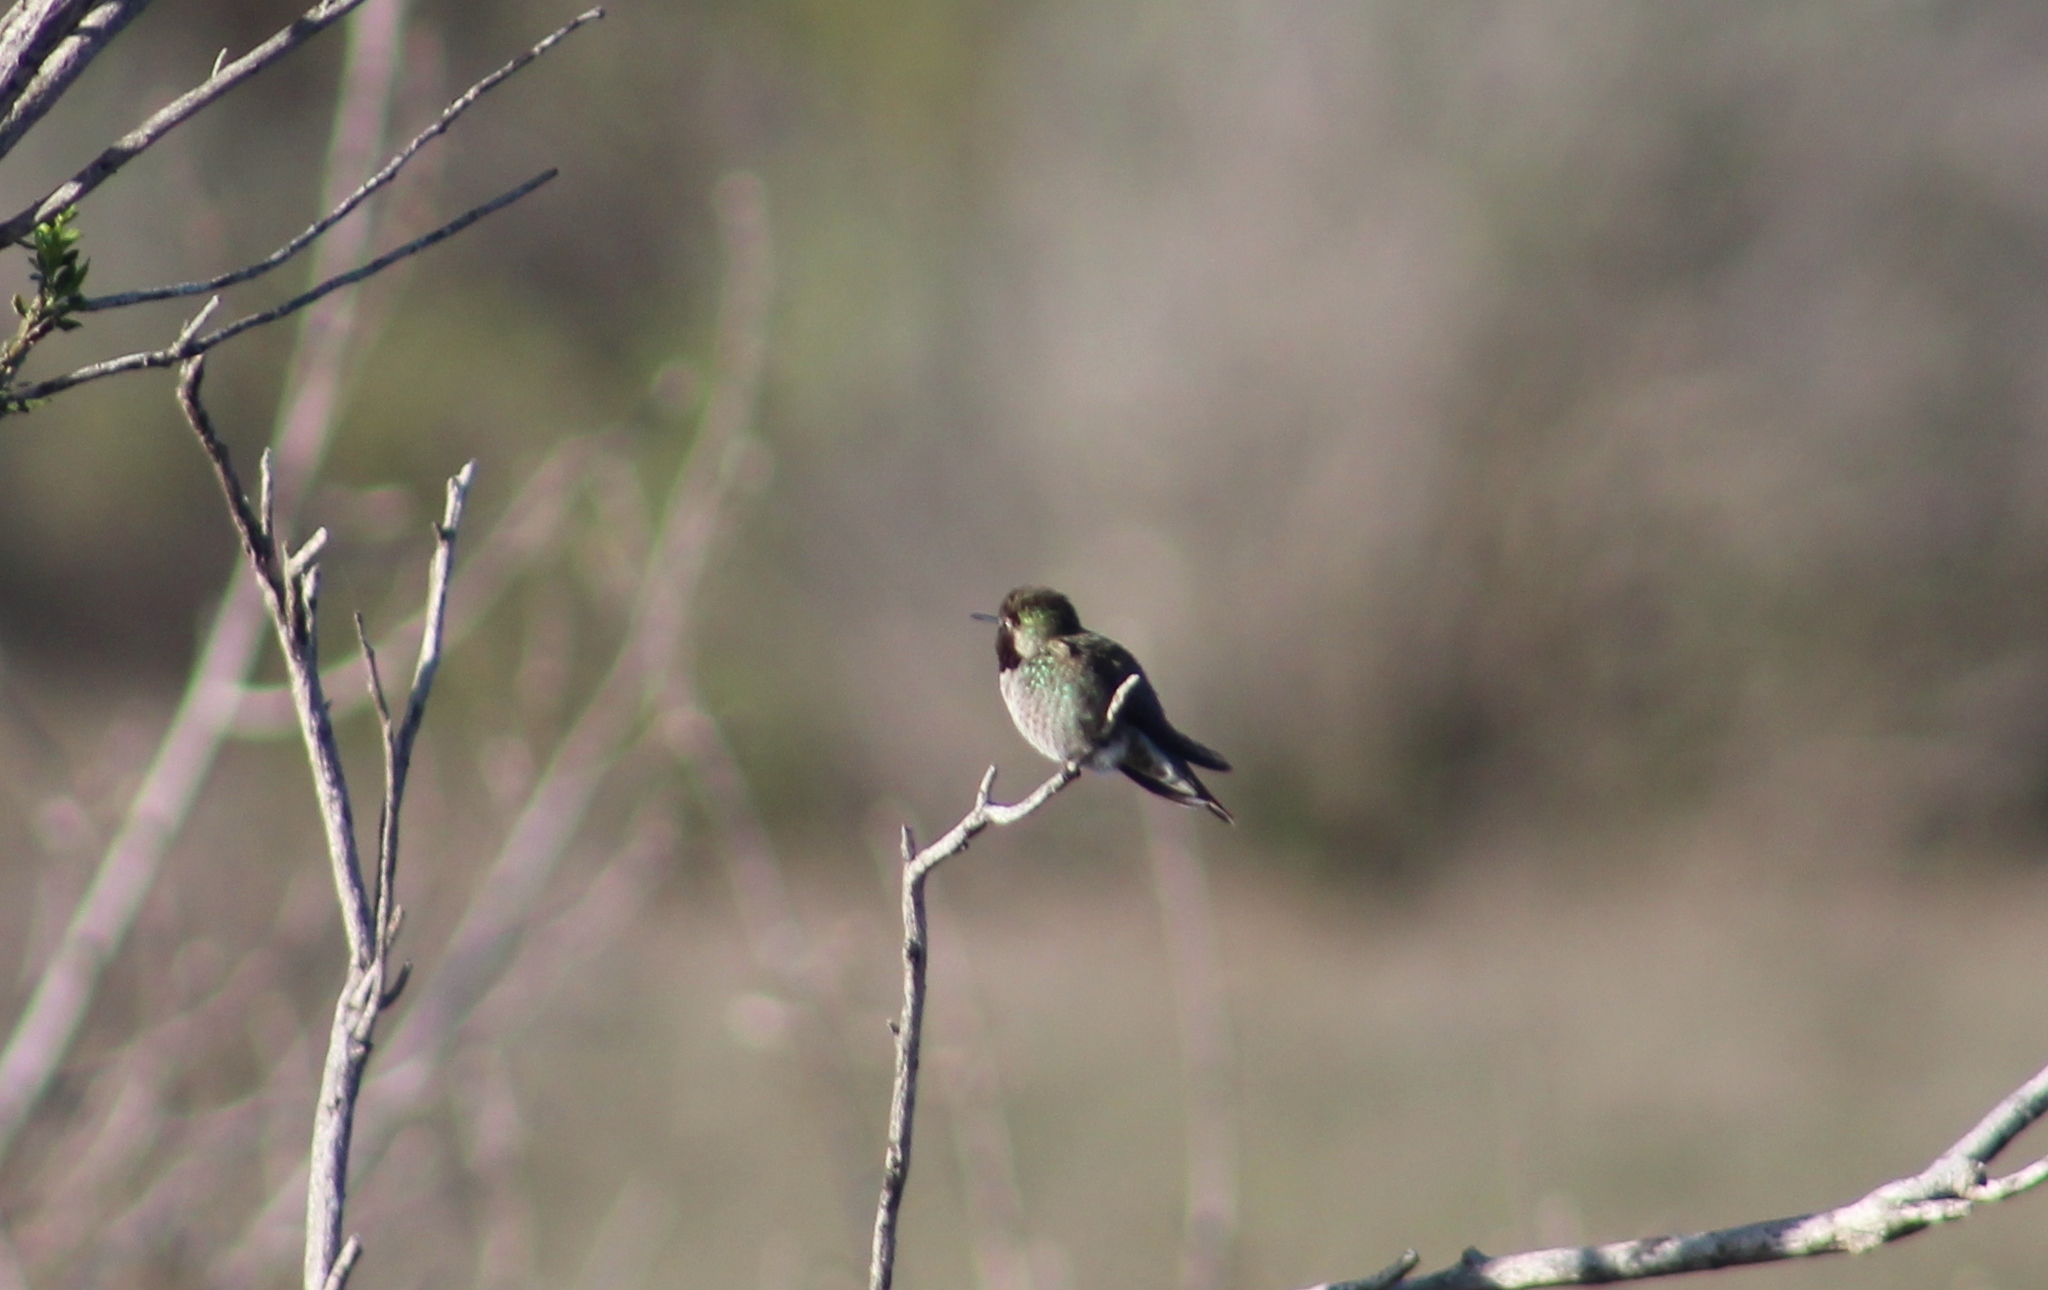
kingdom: Animalia
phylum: Chordata
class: Aves
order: Apodiformes
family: Trochilidae
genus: Calypte
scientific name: Calypte anna
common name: Anna's hummingbird
